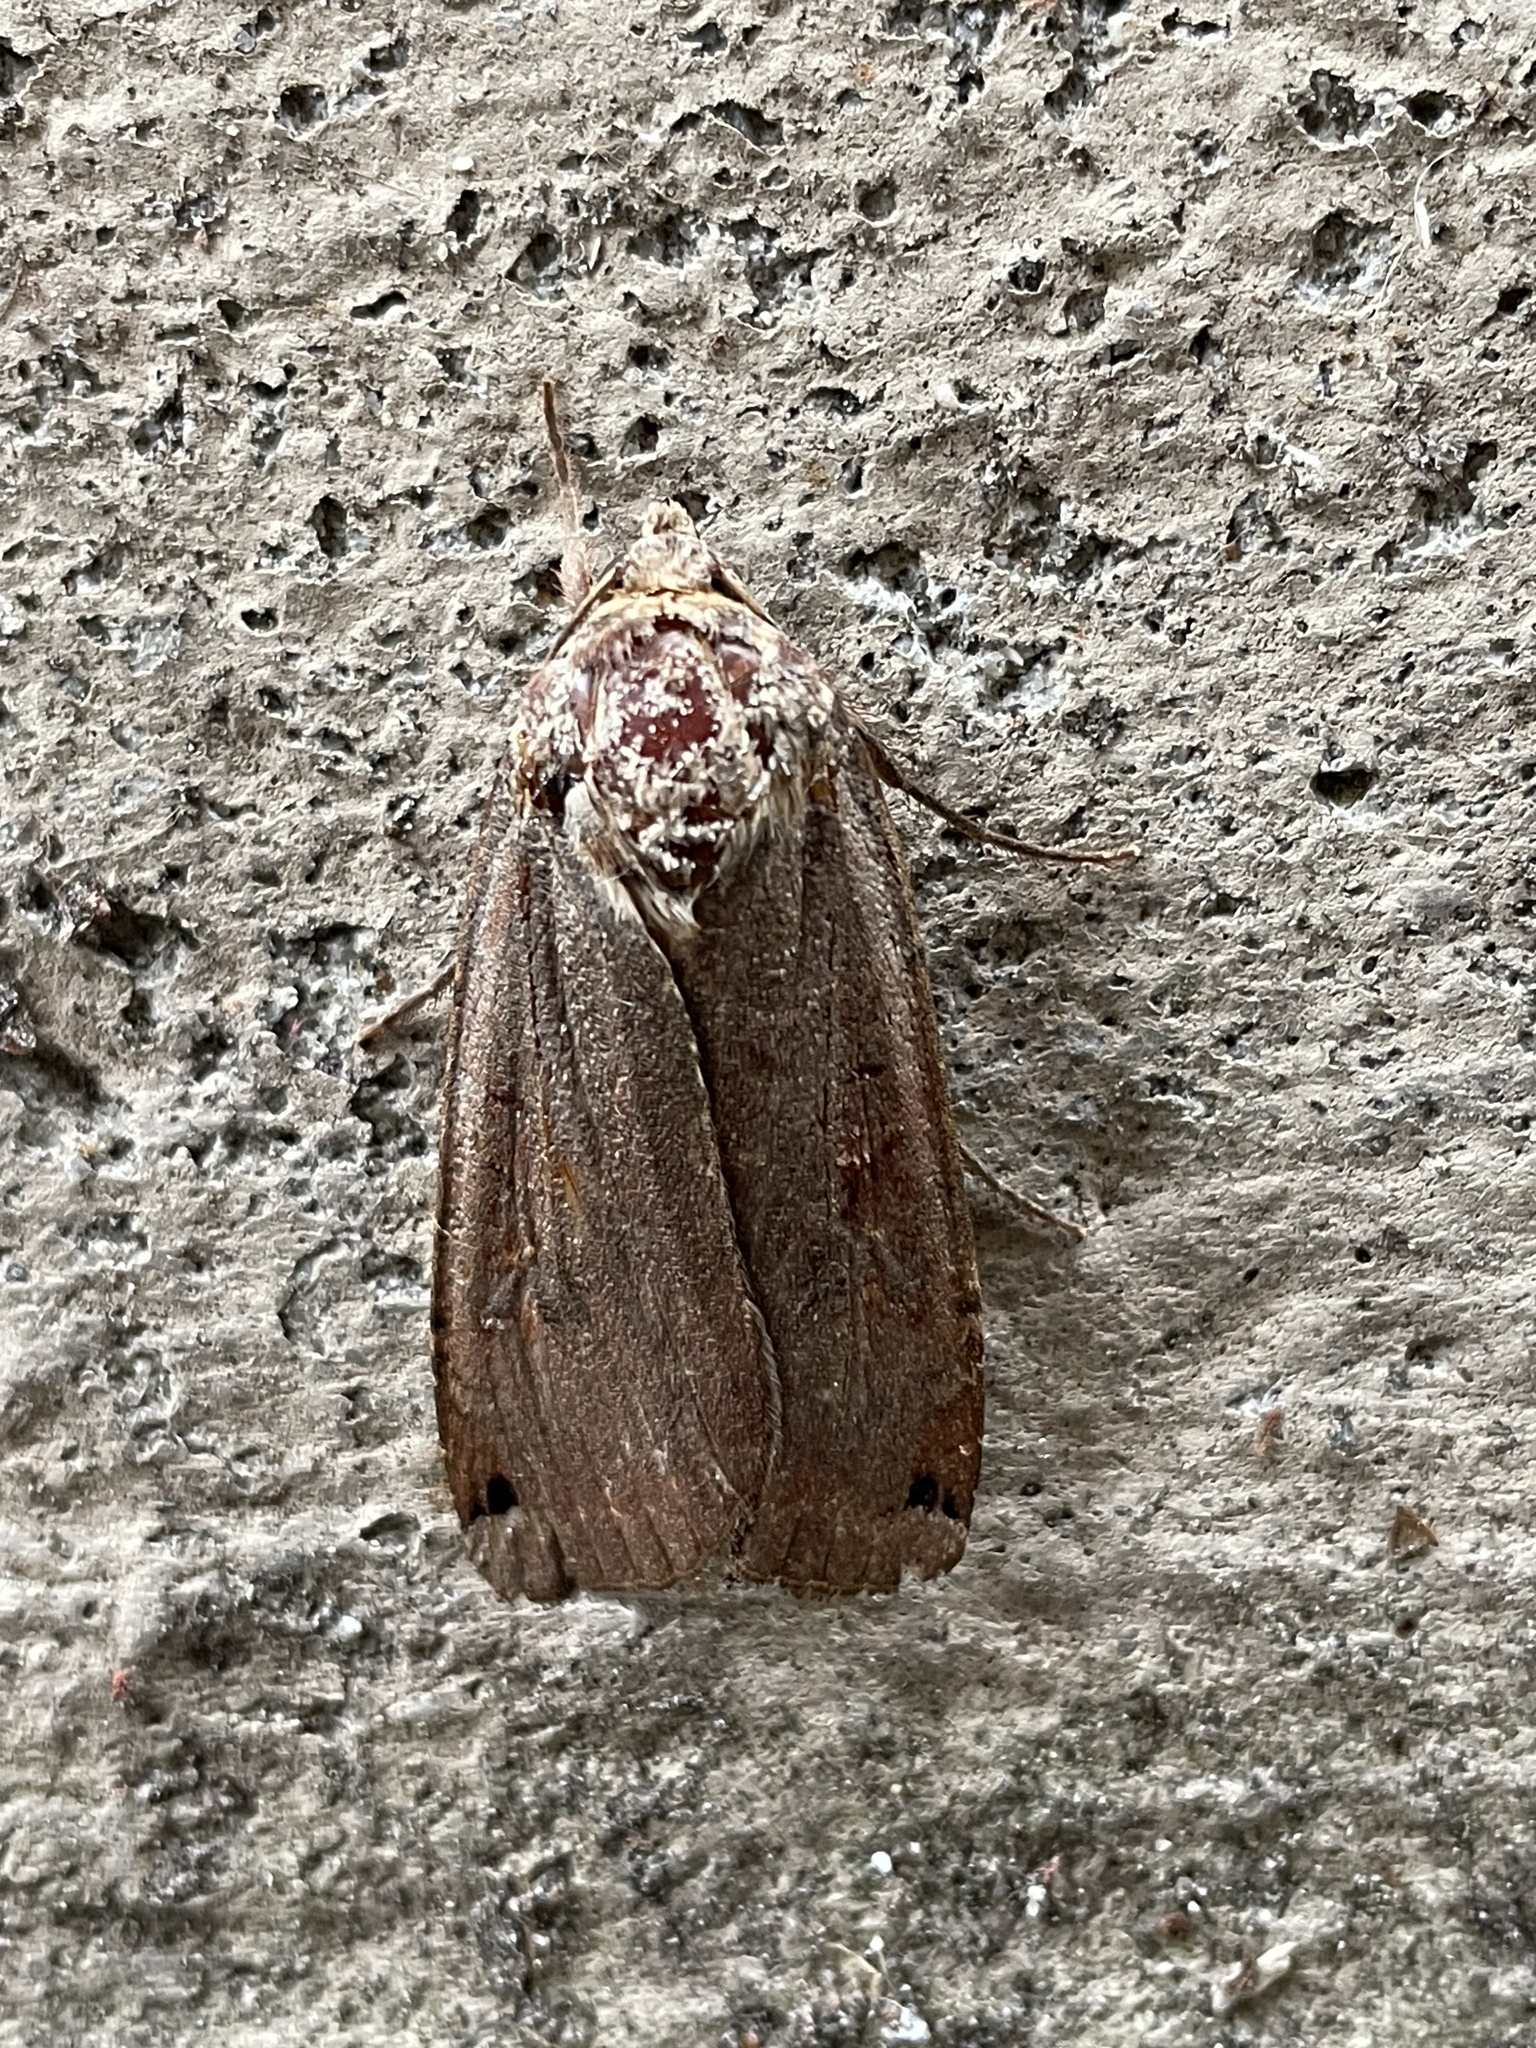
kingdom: Animalia
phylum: Arthropoda
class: Insecta
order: Lepidoptera
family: Noctuidae
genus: Noctua
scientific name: Noctua pronuba
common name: Large yellow underwing
